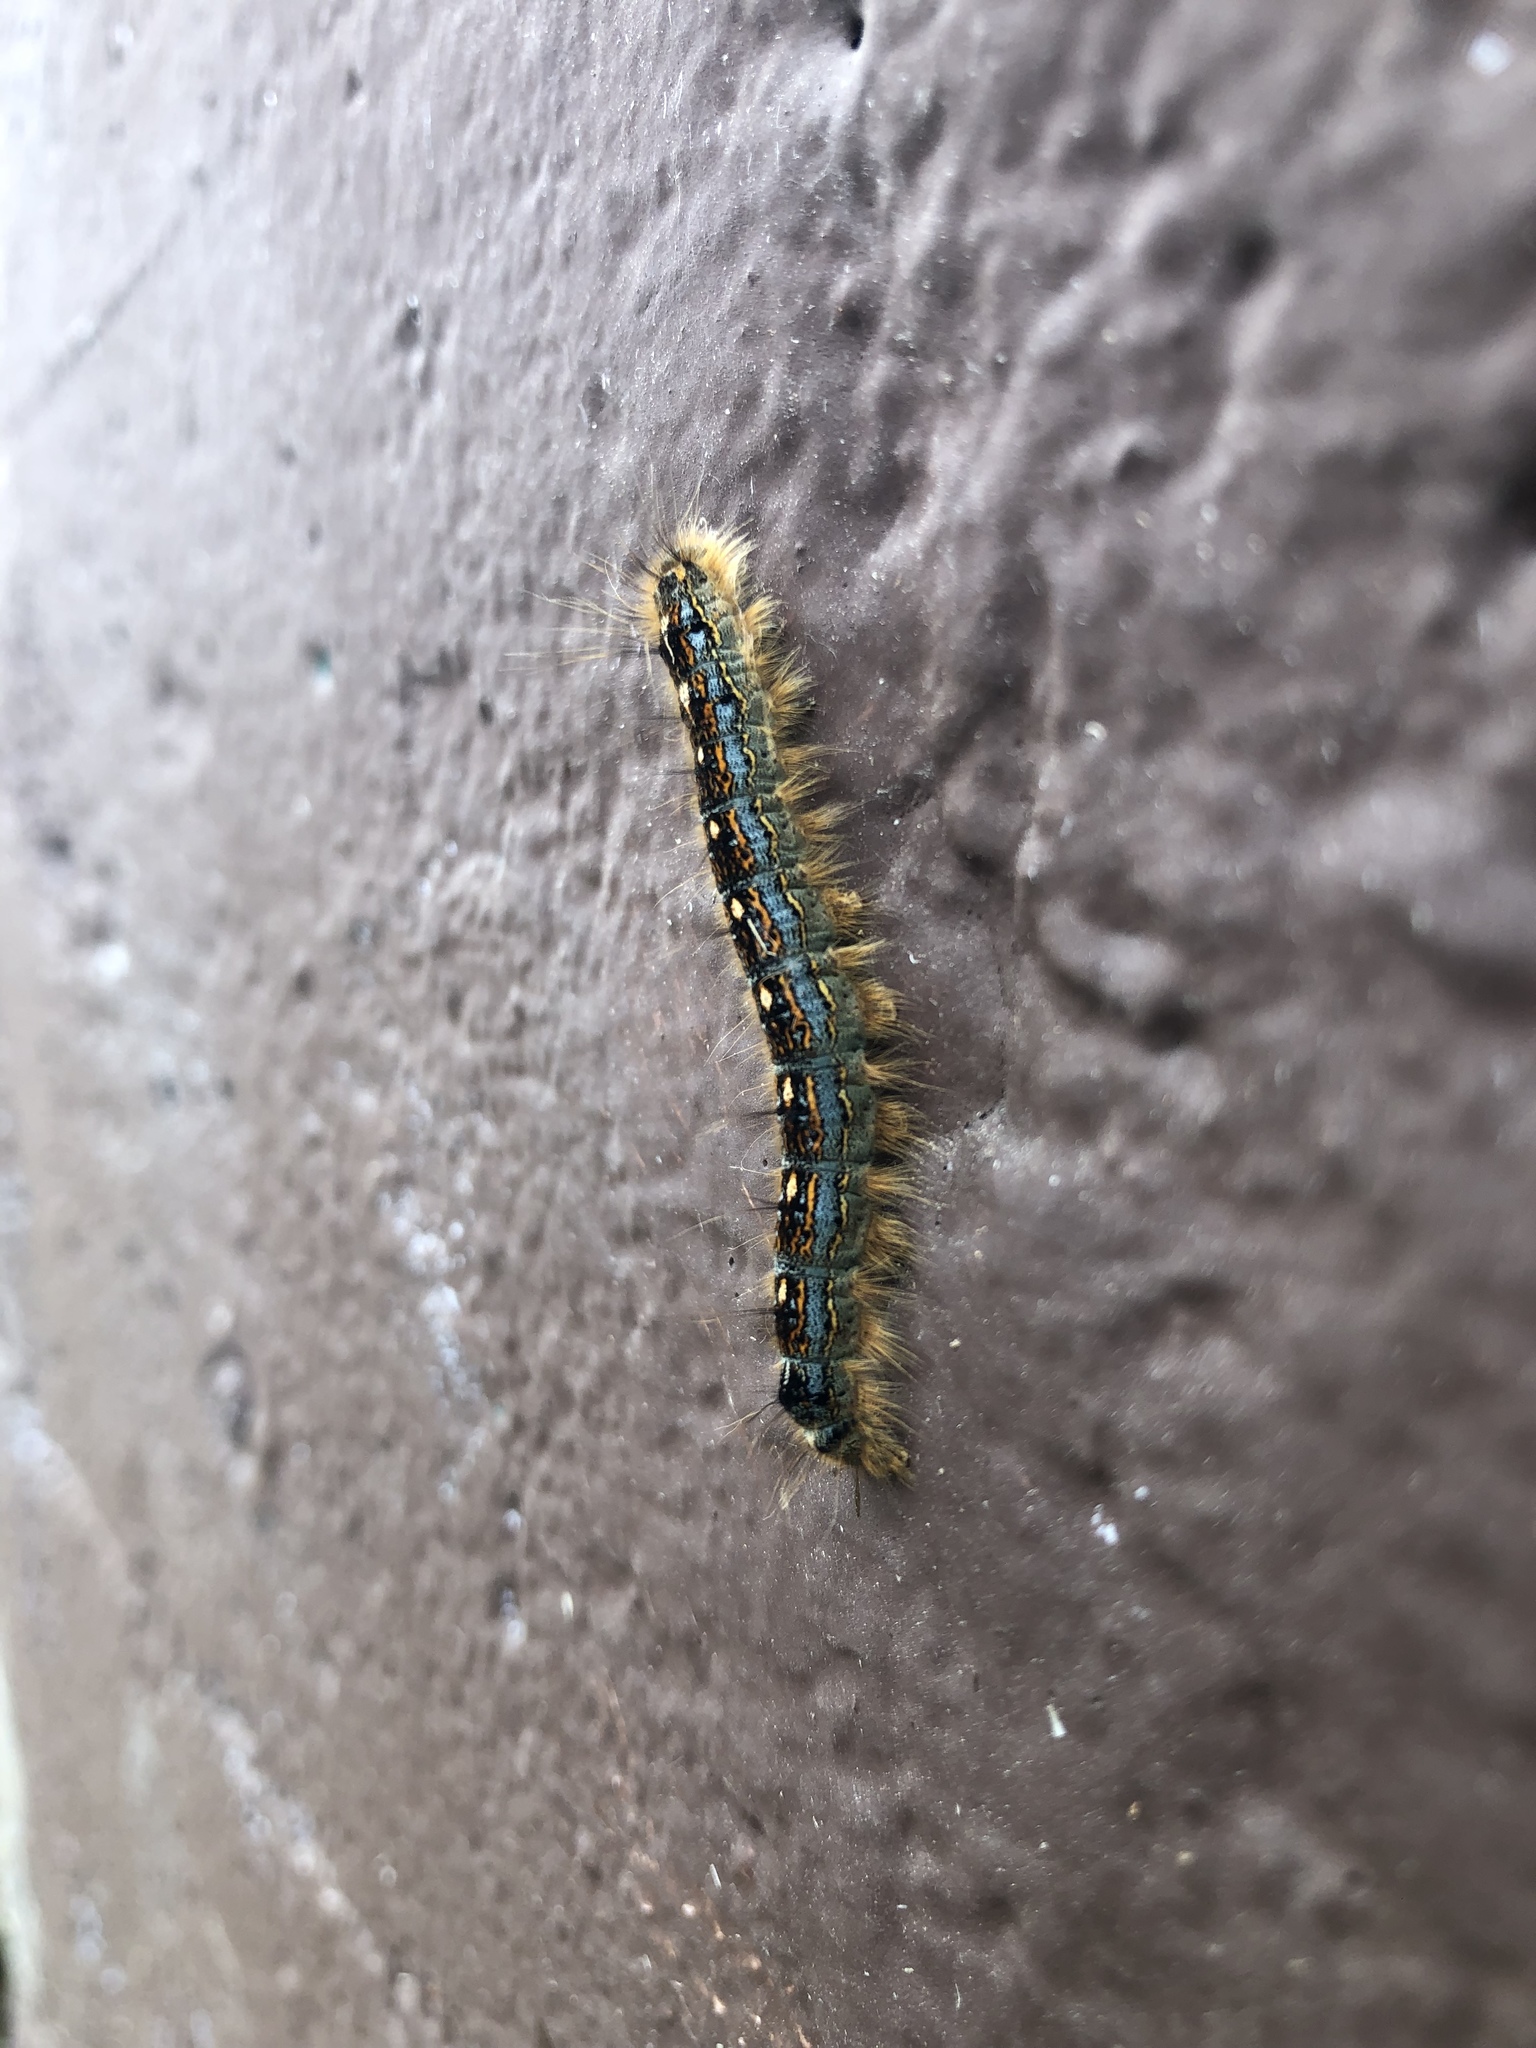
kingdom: Animalia
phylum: Arthropoda
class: Insecta
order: Lepidoptera
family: Lasiocampidae
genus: Malacosoma
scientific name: Malacosoma disstria
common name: Forest tent caterpillar
